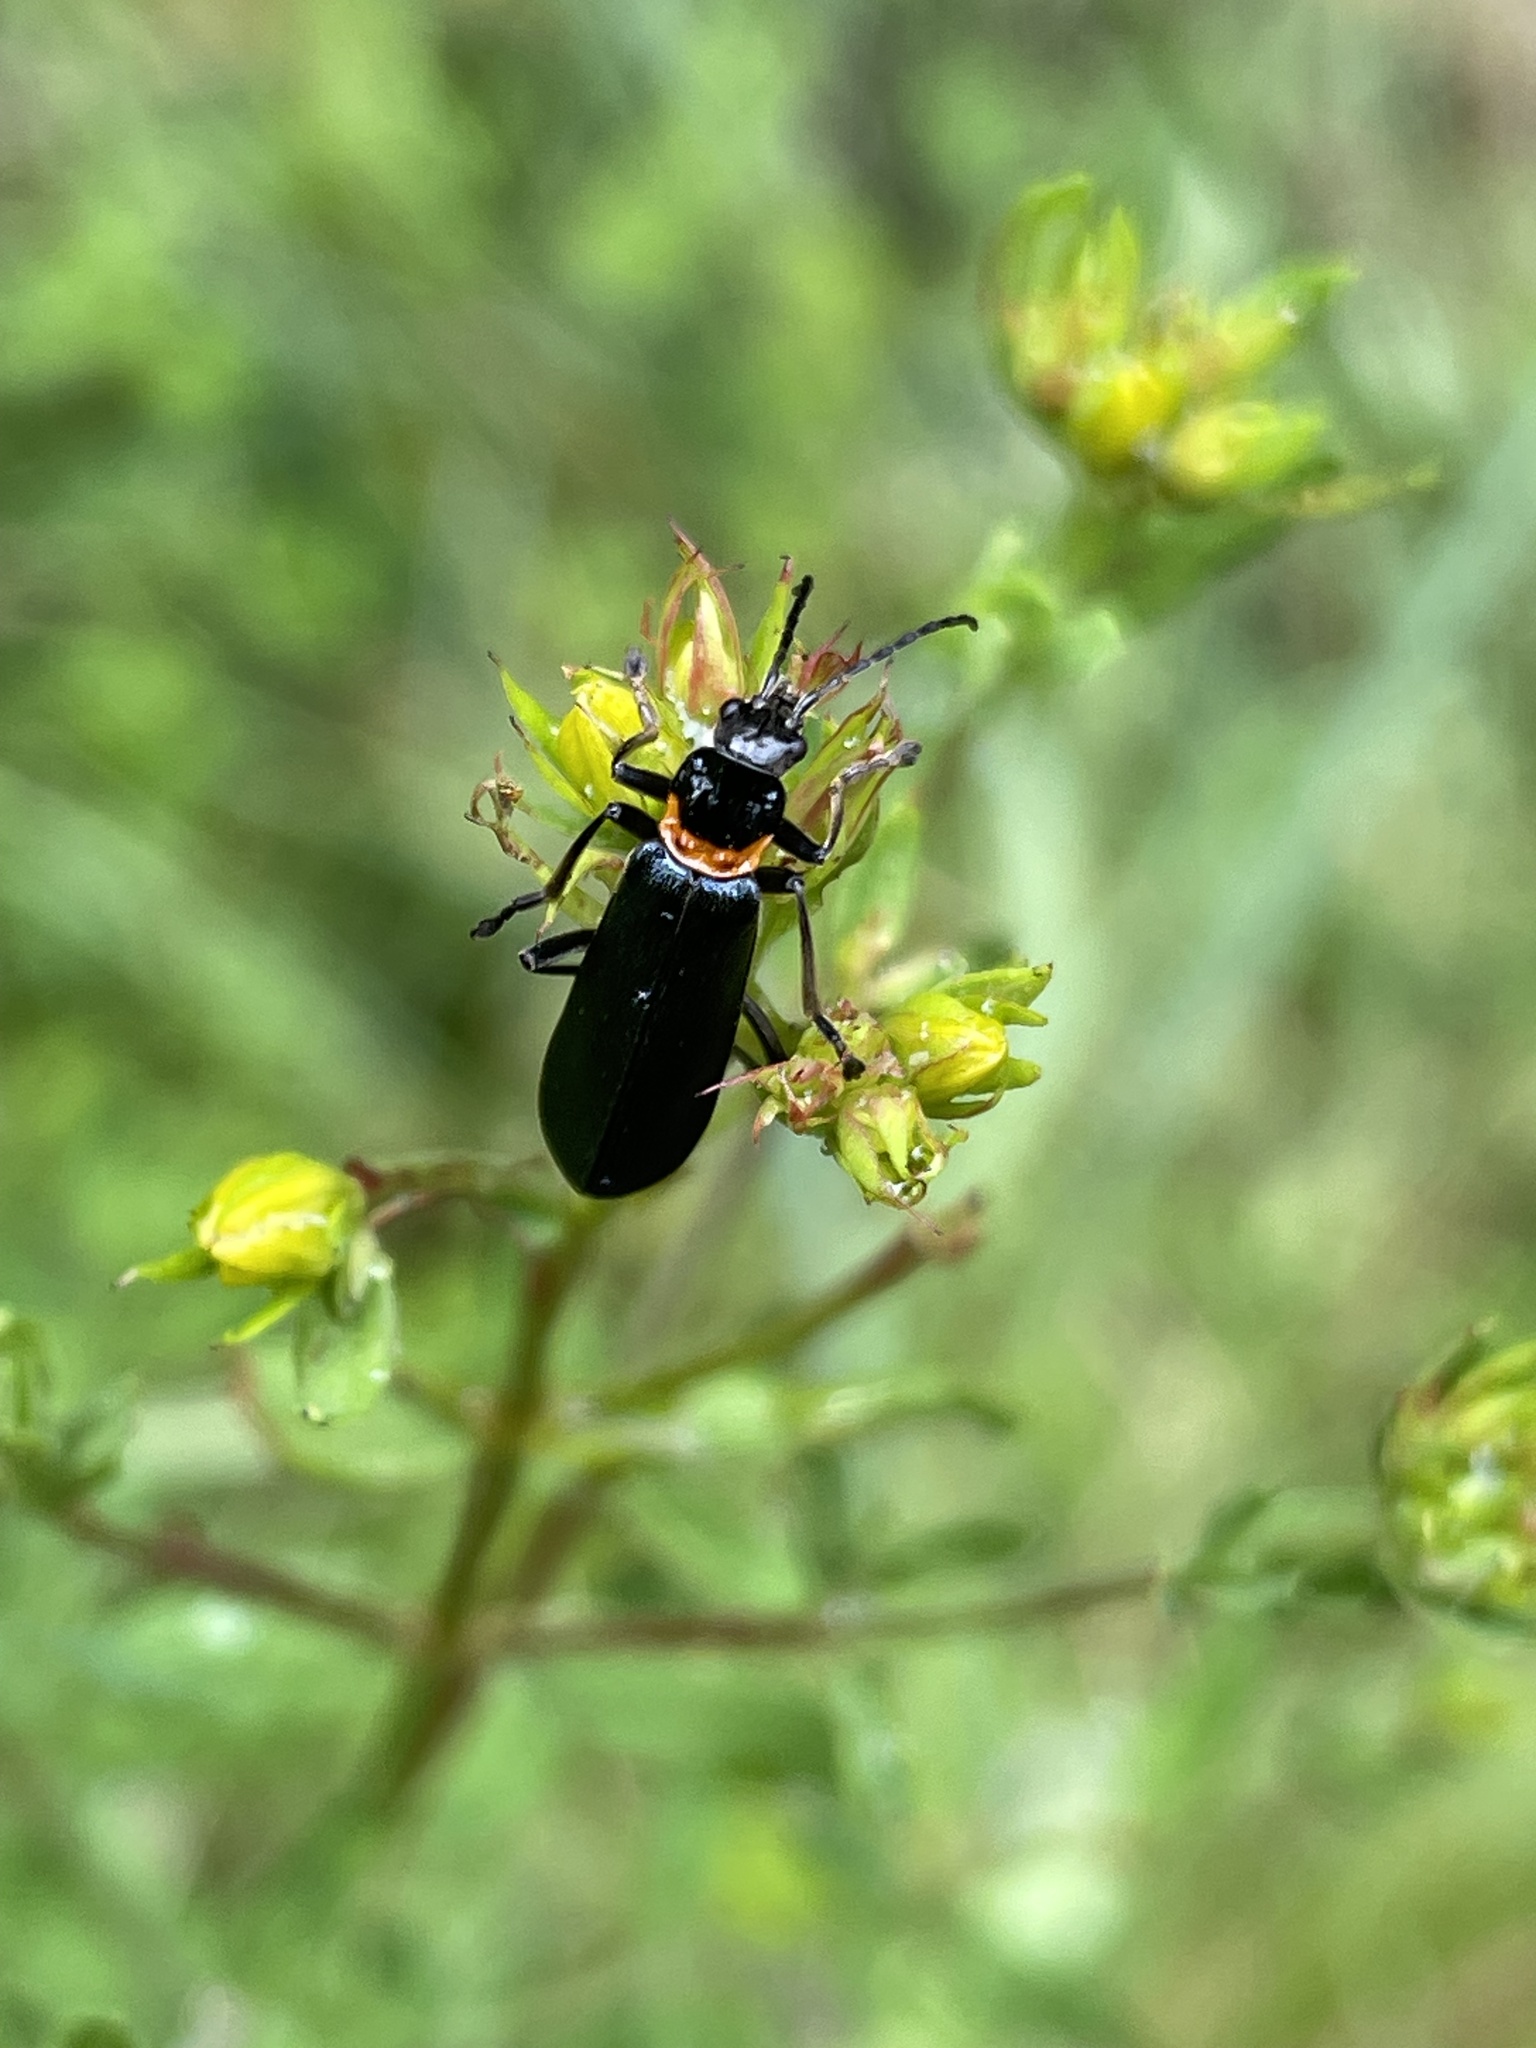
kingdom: Animalia
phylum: Arthropoda
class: Insecta
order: Coleoptera
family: Cantharidae
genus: Chauliognathus
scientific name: Chauliognathus
